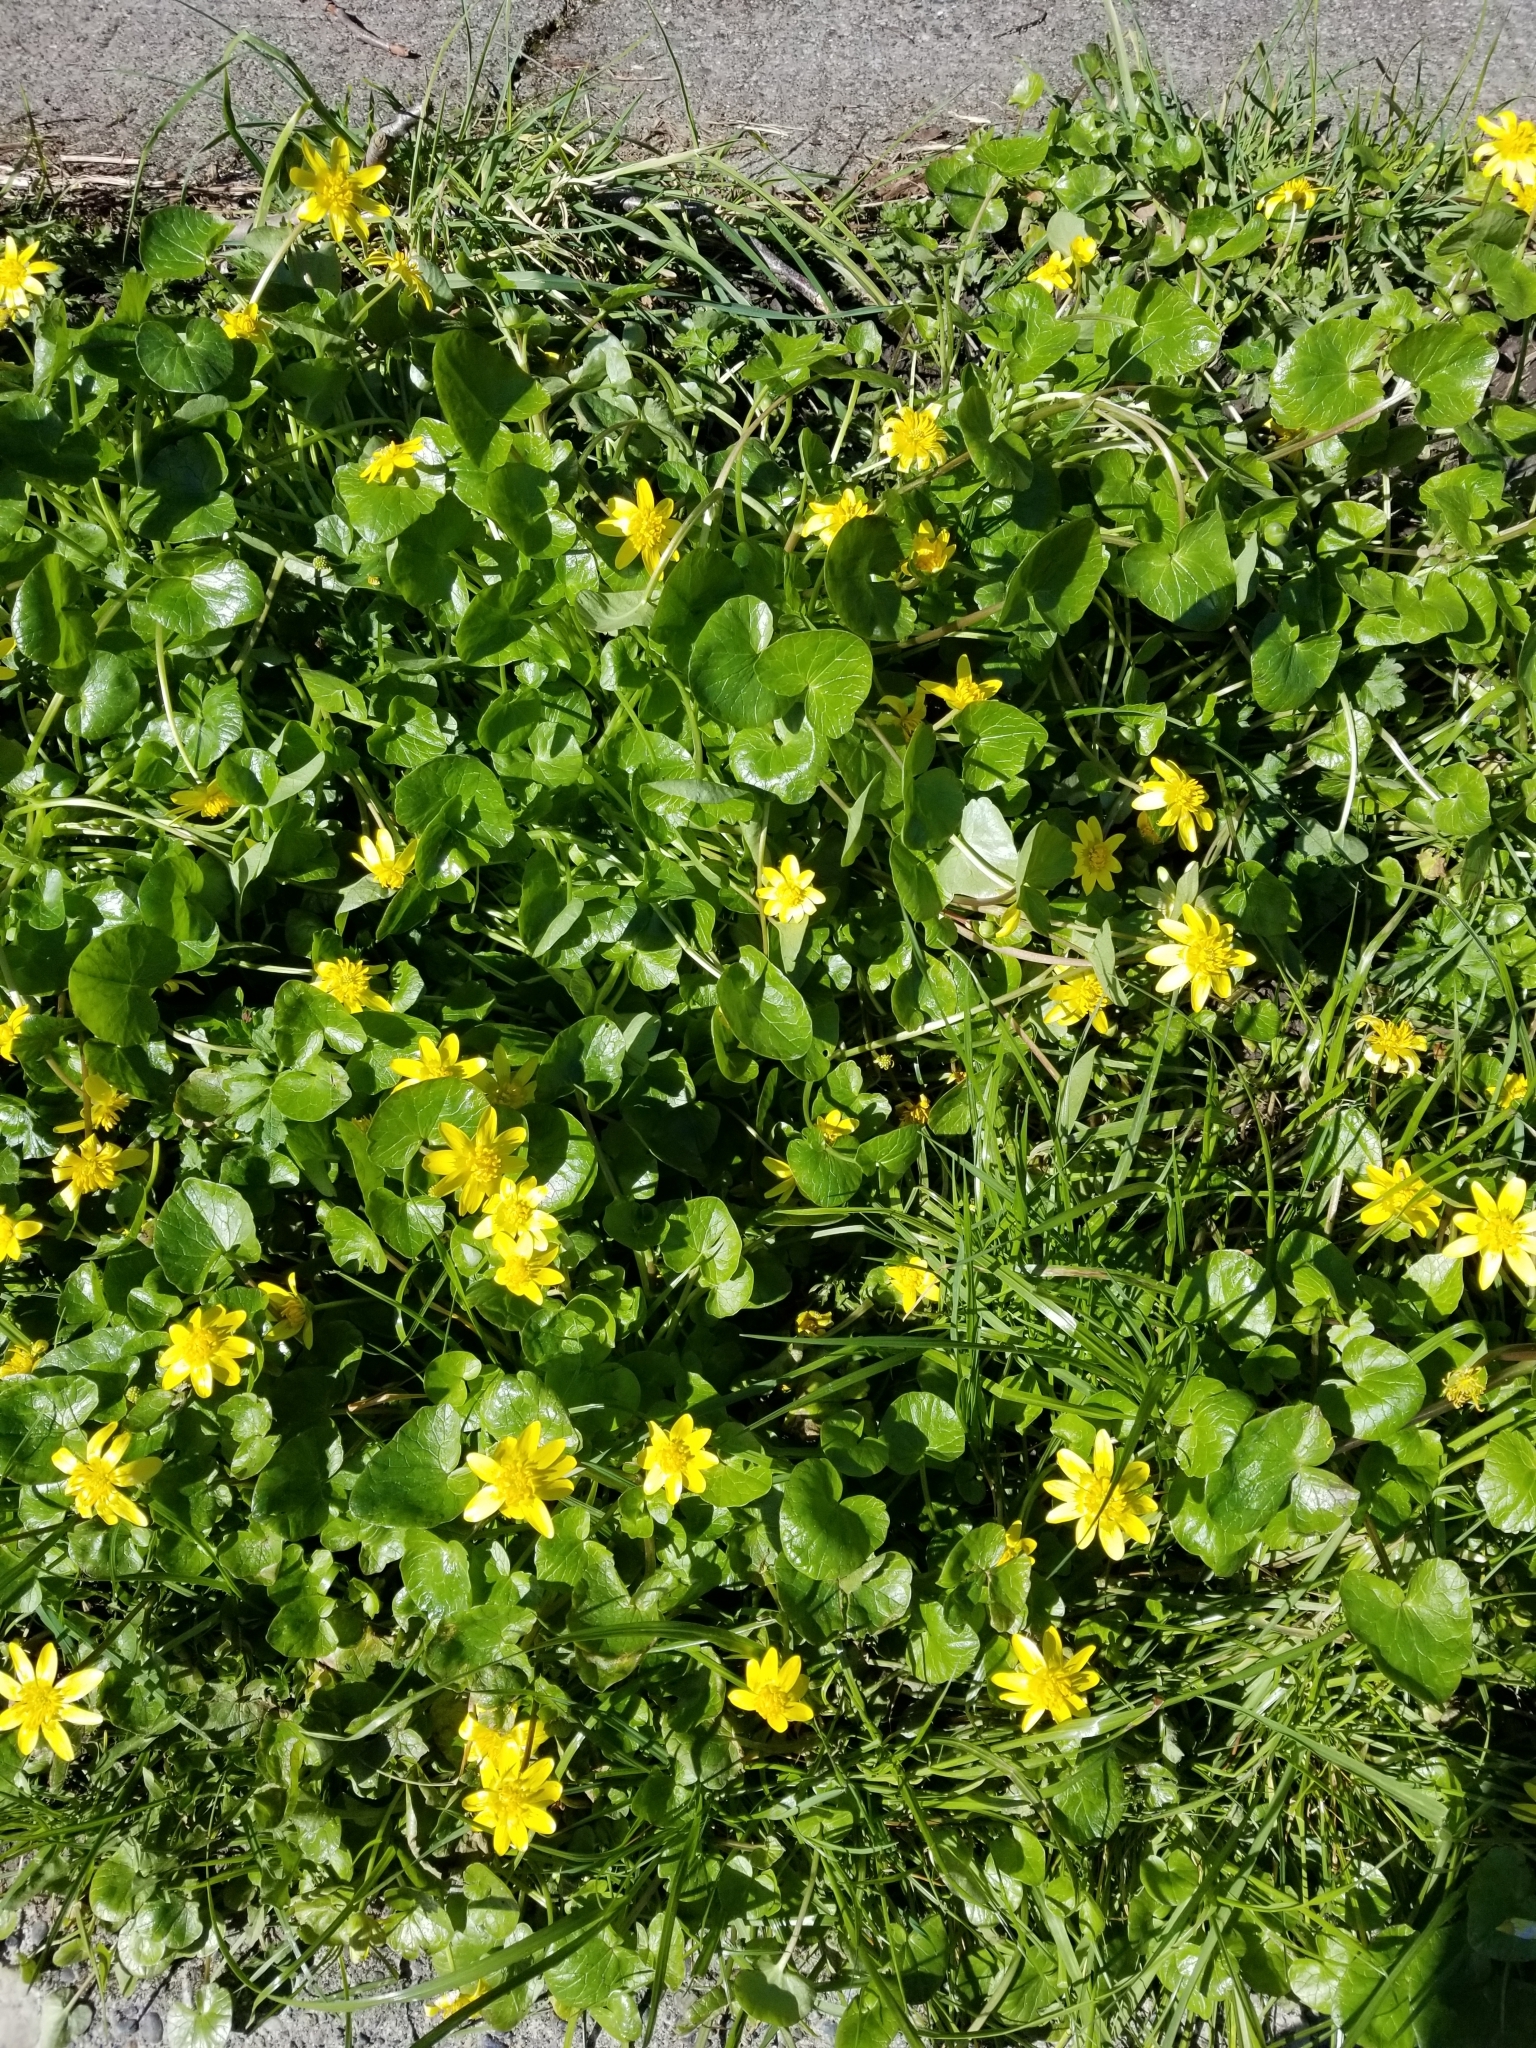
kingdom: Plantae
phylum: Tracheophyta
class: Magnoliopsida
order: Ranunculales
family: Ranunculaceae
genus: Ficaria
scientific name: Ficaria verna
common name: Lesser celandine
